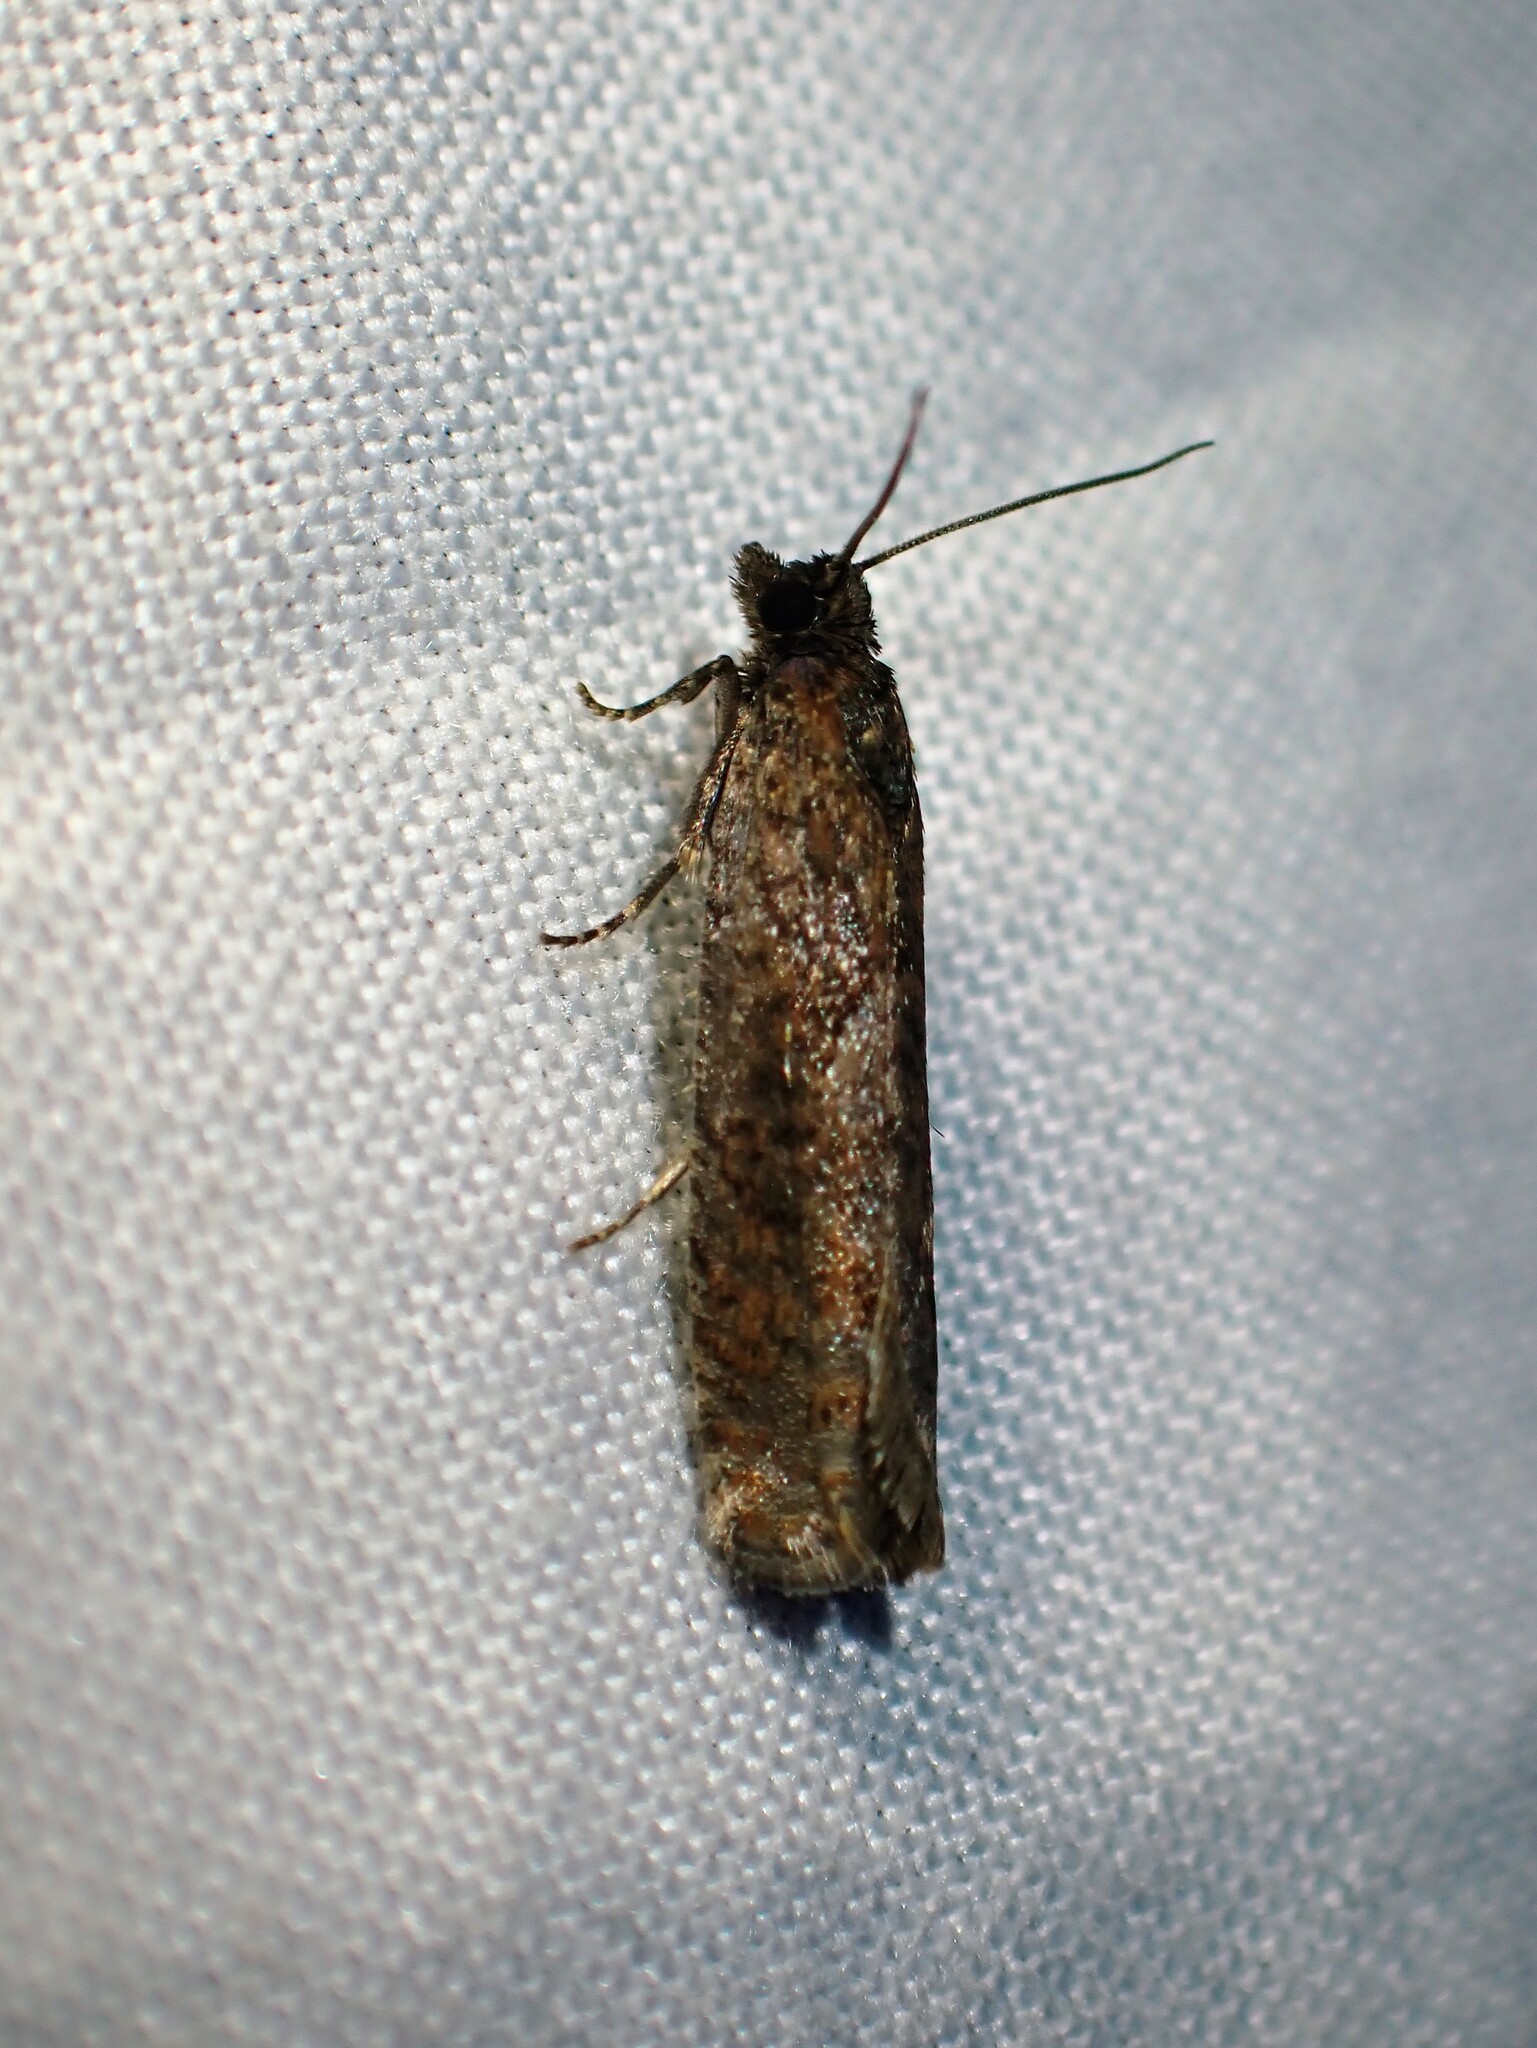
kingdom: Animalia
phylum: Arthropoda
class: Insecta
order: Lepidoptera
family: Tortricidae
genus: Pseudexentera
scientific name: Pseudexentera oregonana
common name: Early aspen leafcurler
